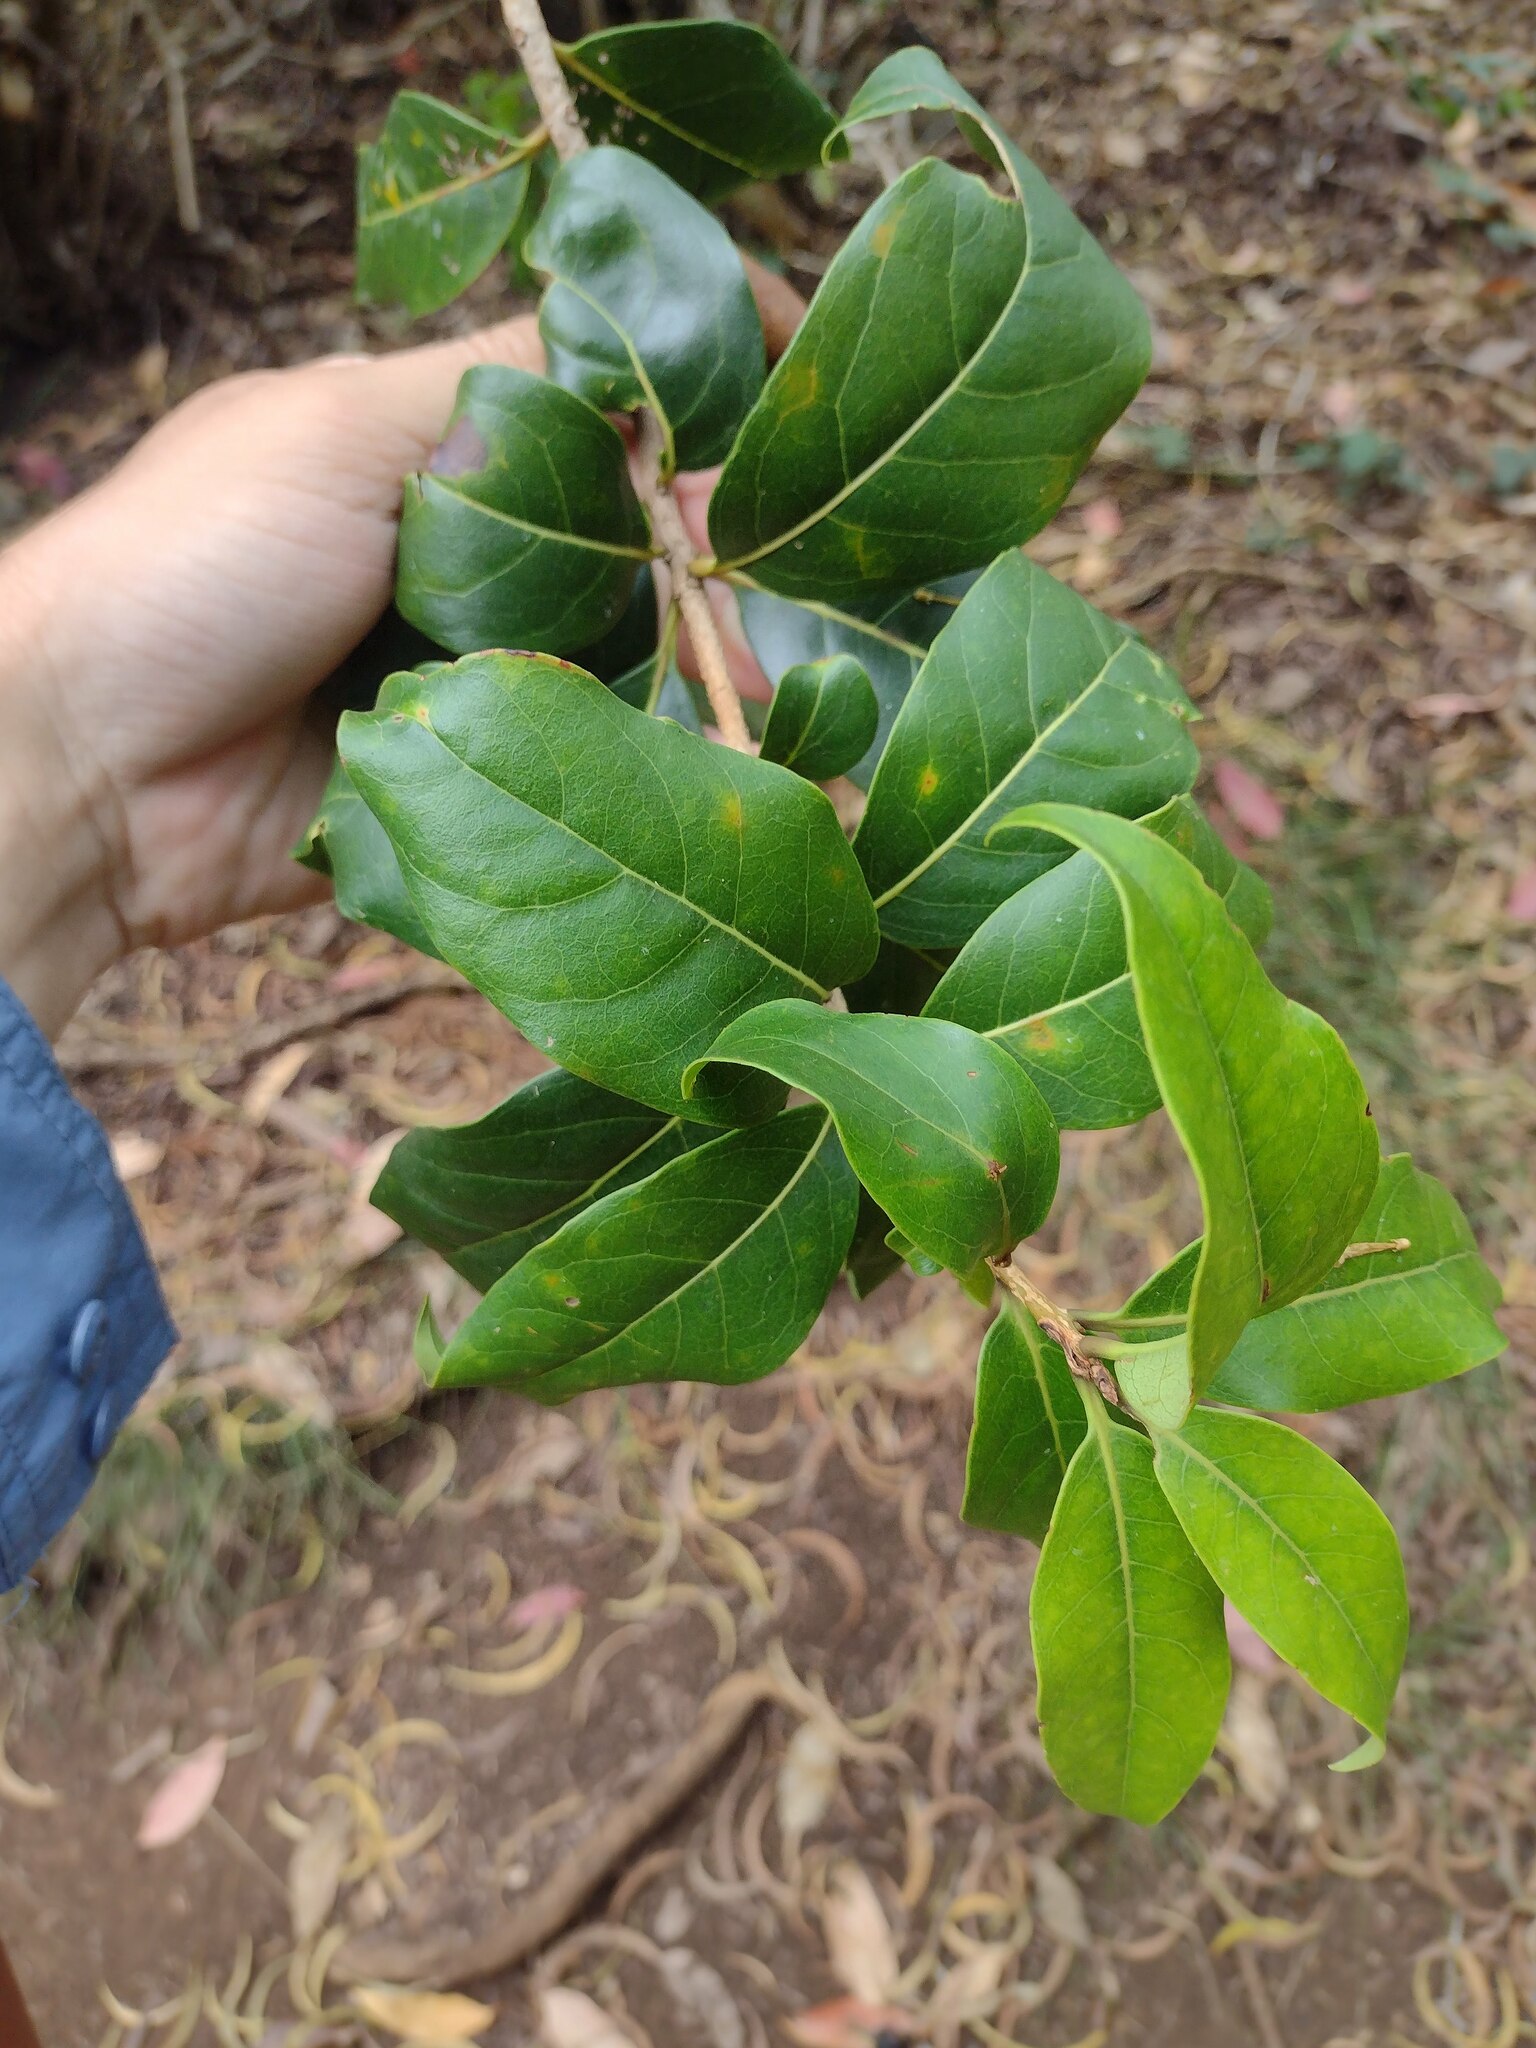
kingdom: Plantae
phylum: Tracheophyta
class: Magnoliopsida
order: Sapindales
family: Sapindaceae
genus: Sapindus
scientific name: Sapindus oahuensis
